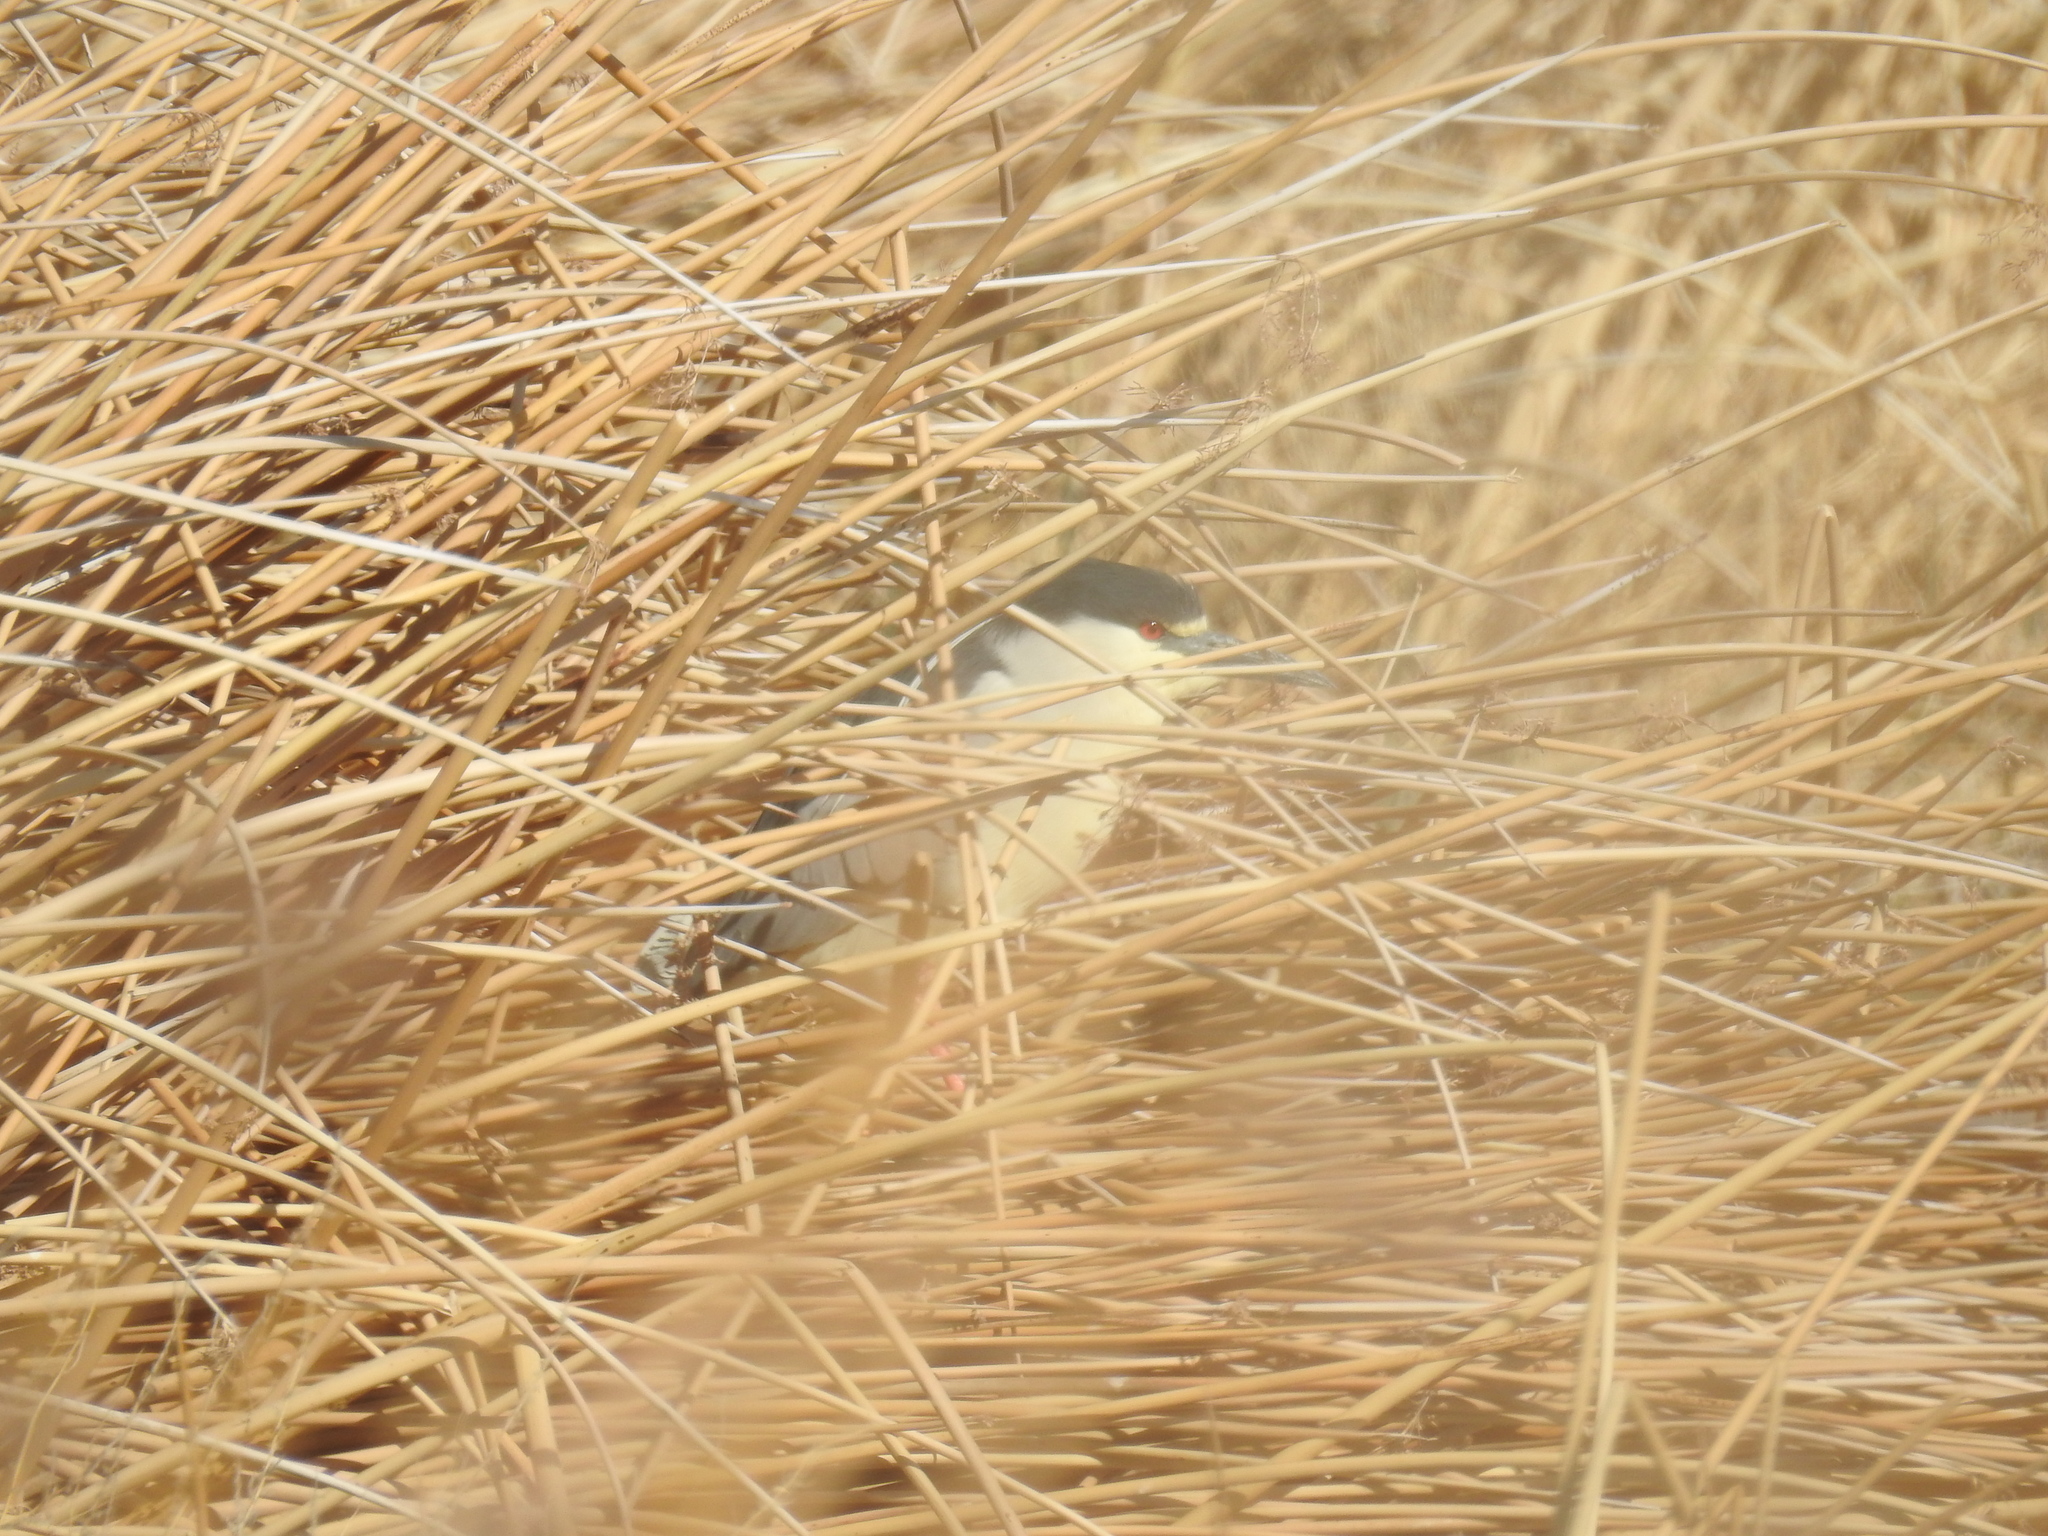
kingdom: Animalia
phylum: Chordata
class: Aves
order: Pelecaniformes
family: Ardeidae
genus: Nycticorax
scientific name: Nycticorax nycticorax
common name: Black-crowned night heron
